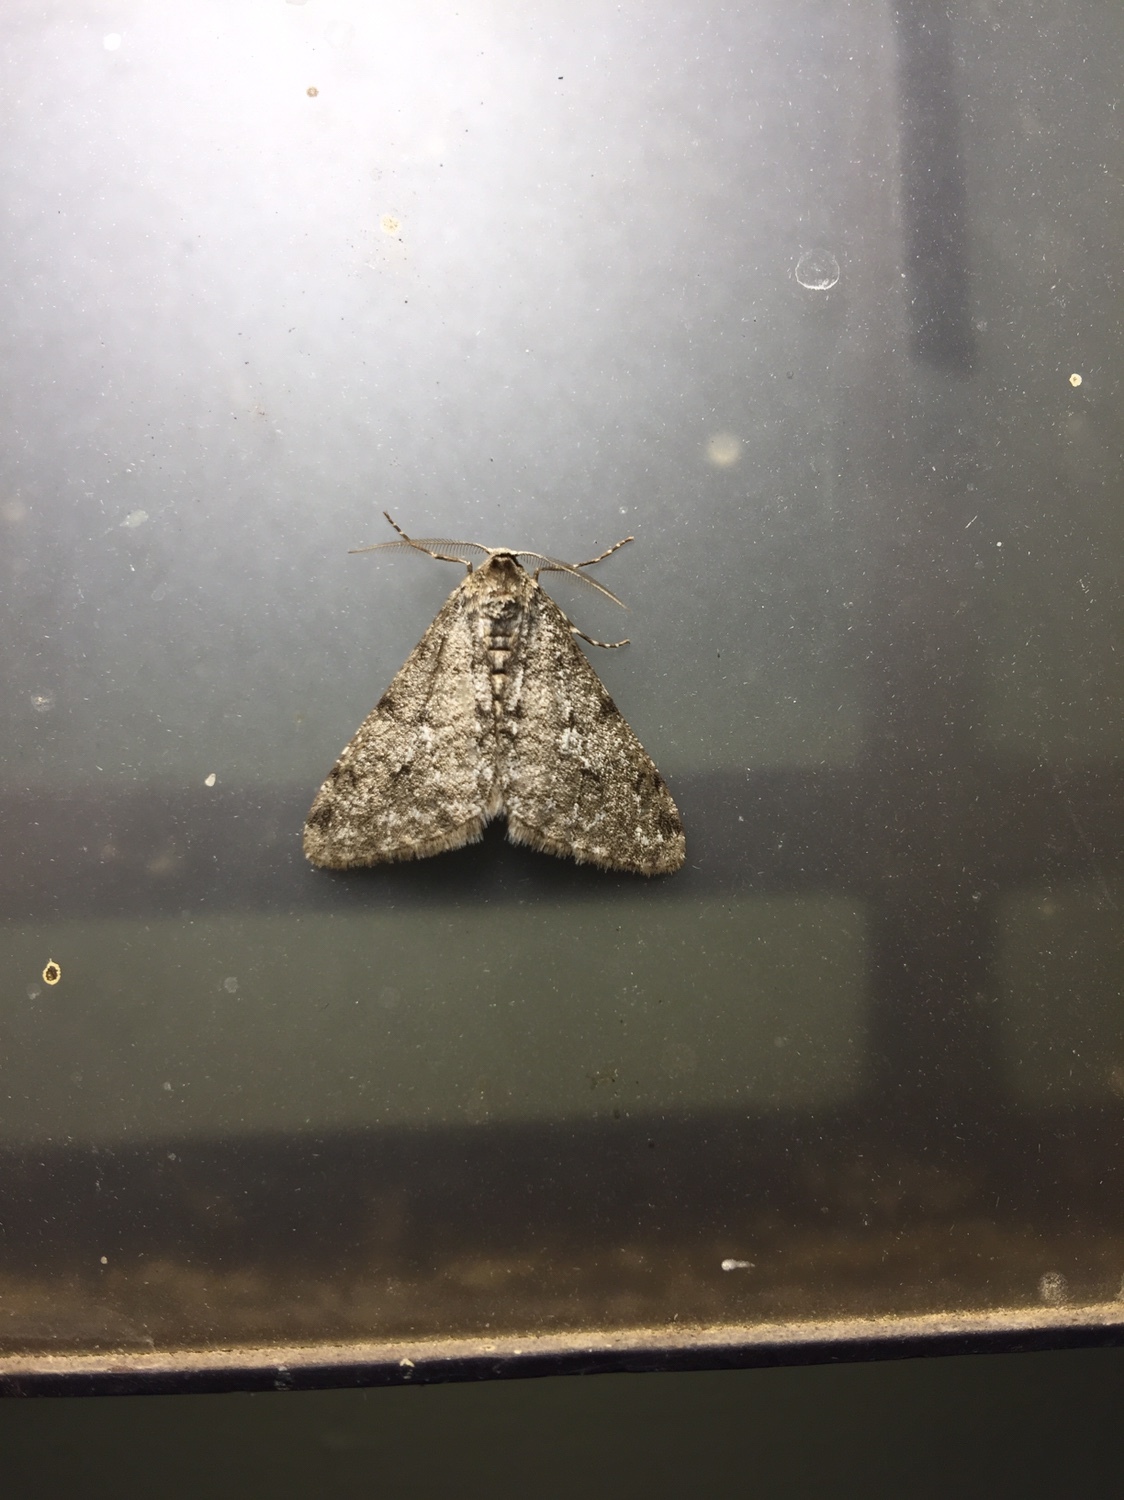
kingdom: Animalia
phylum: Arthropoda
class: Insecta
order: Lepidoptera
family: Geometridae
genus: Phigalia
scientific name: Phigalia strigataria
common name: Small phigalia
